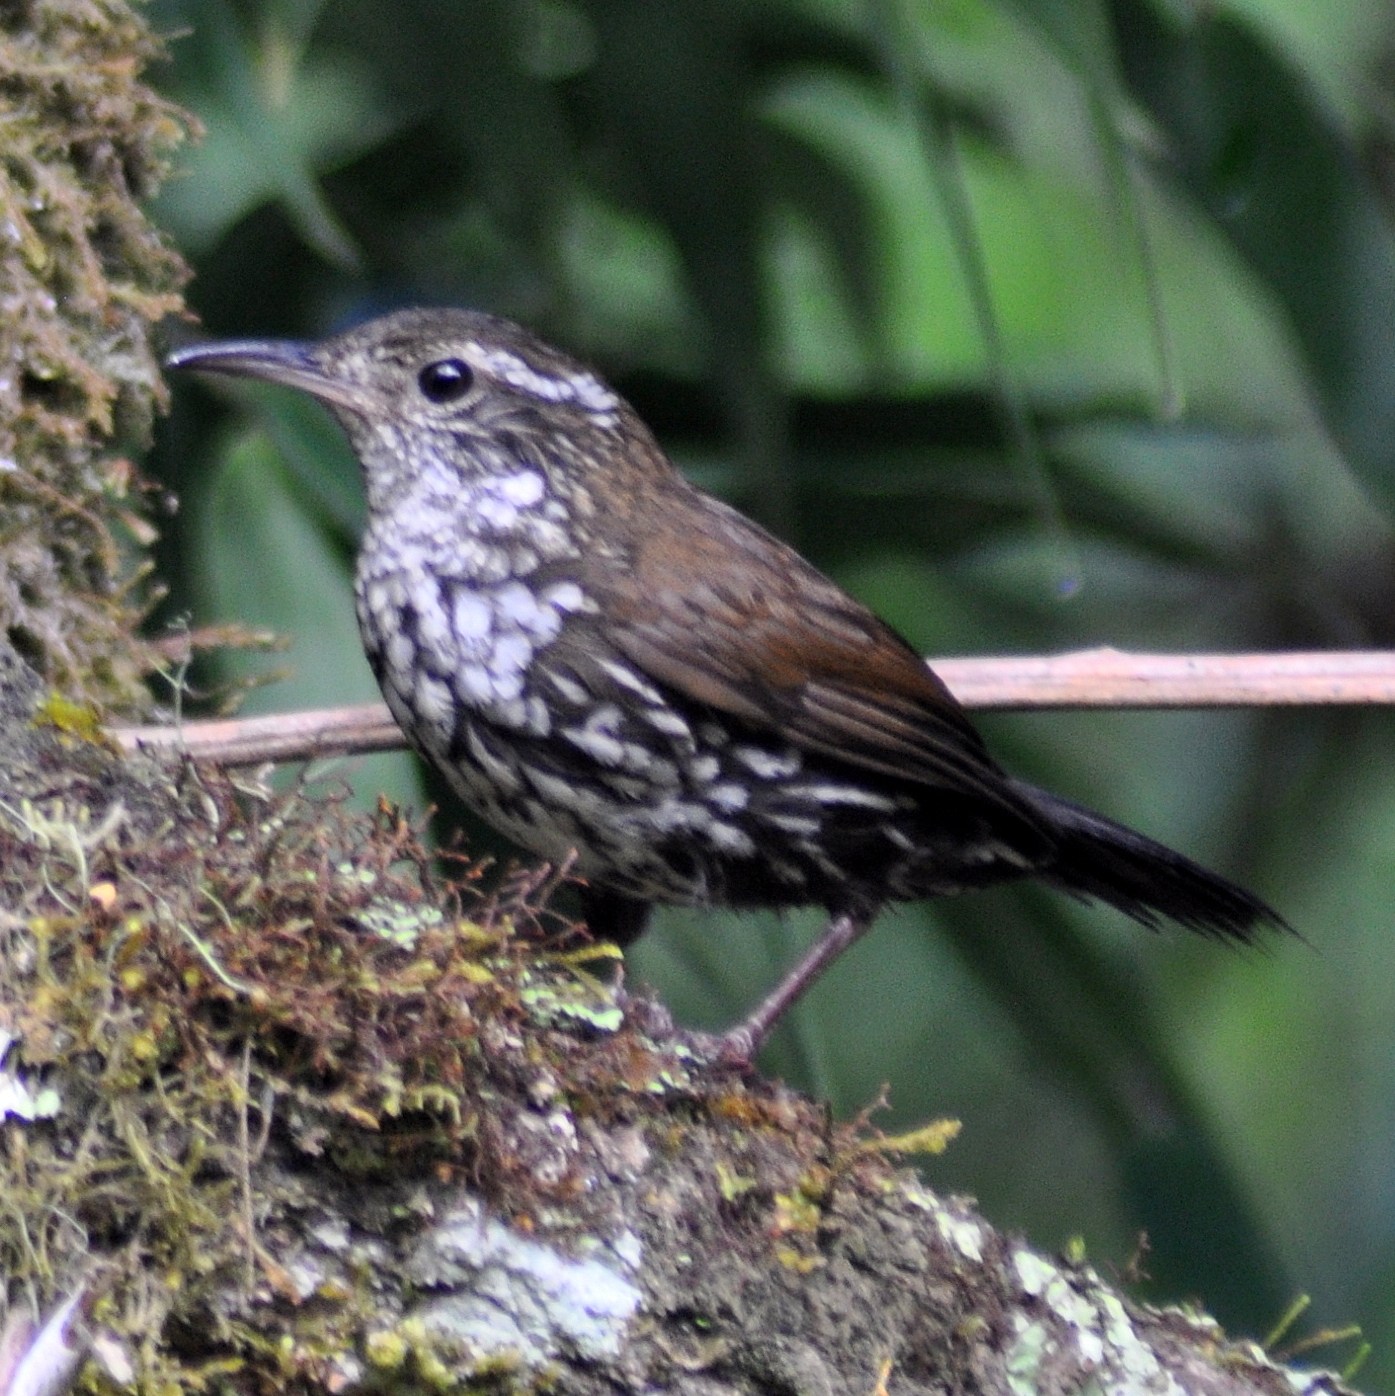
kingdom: Animalia
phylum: Chordata
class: Aves
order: Passeriformes
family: Furnariidae
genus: Lochmias
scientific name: Lochmias nematura
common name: Sharp-tailed streamcreeper
